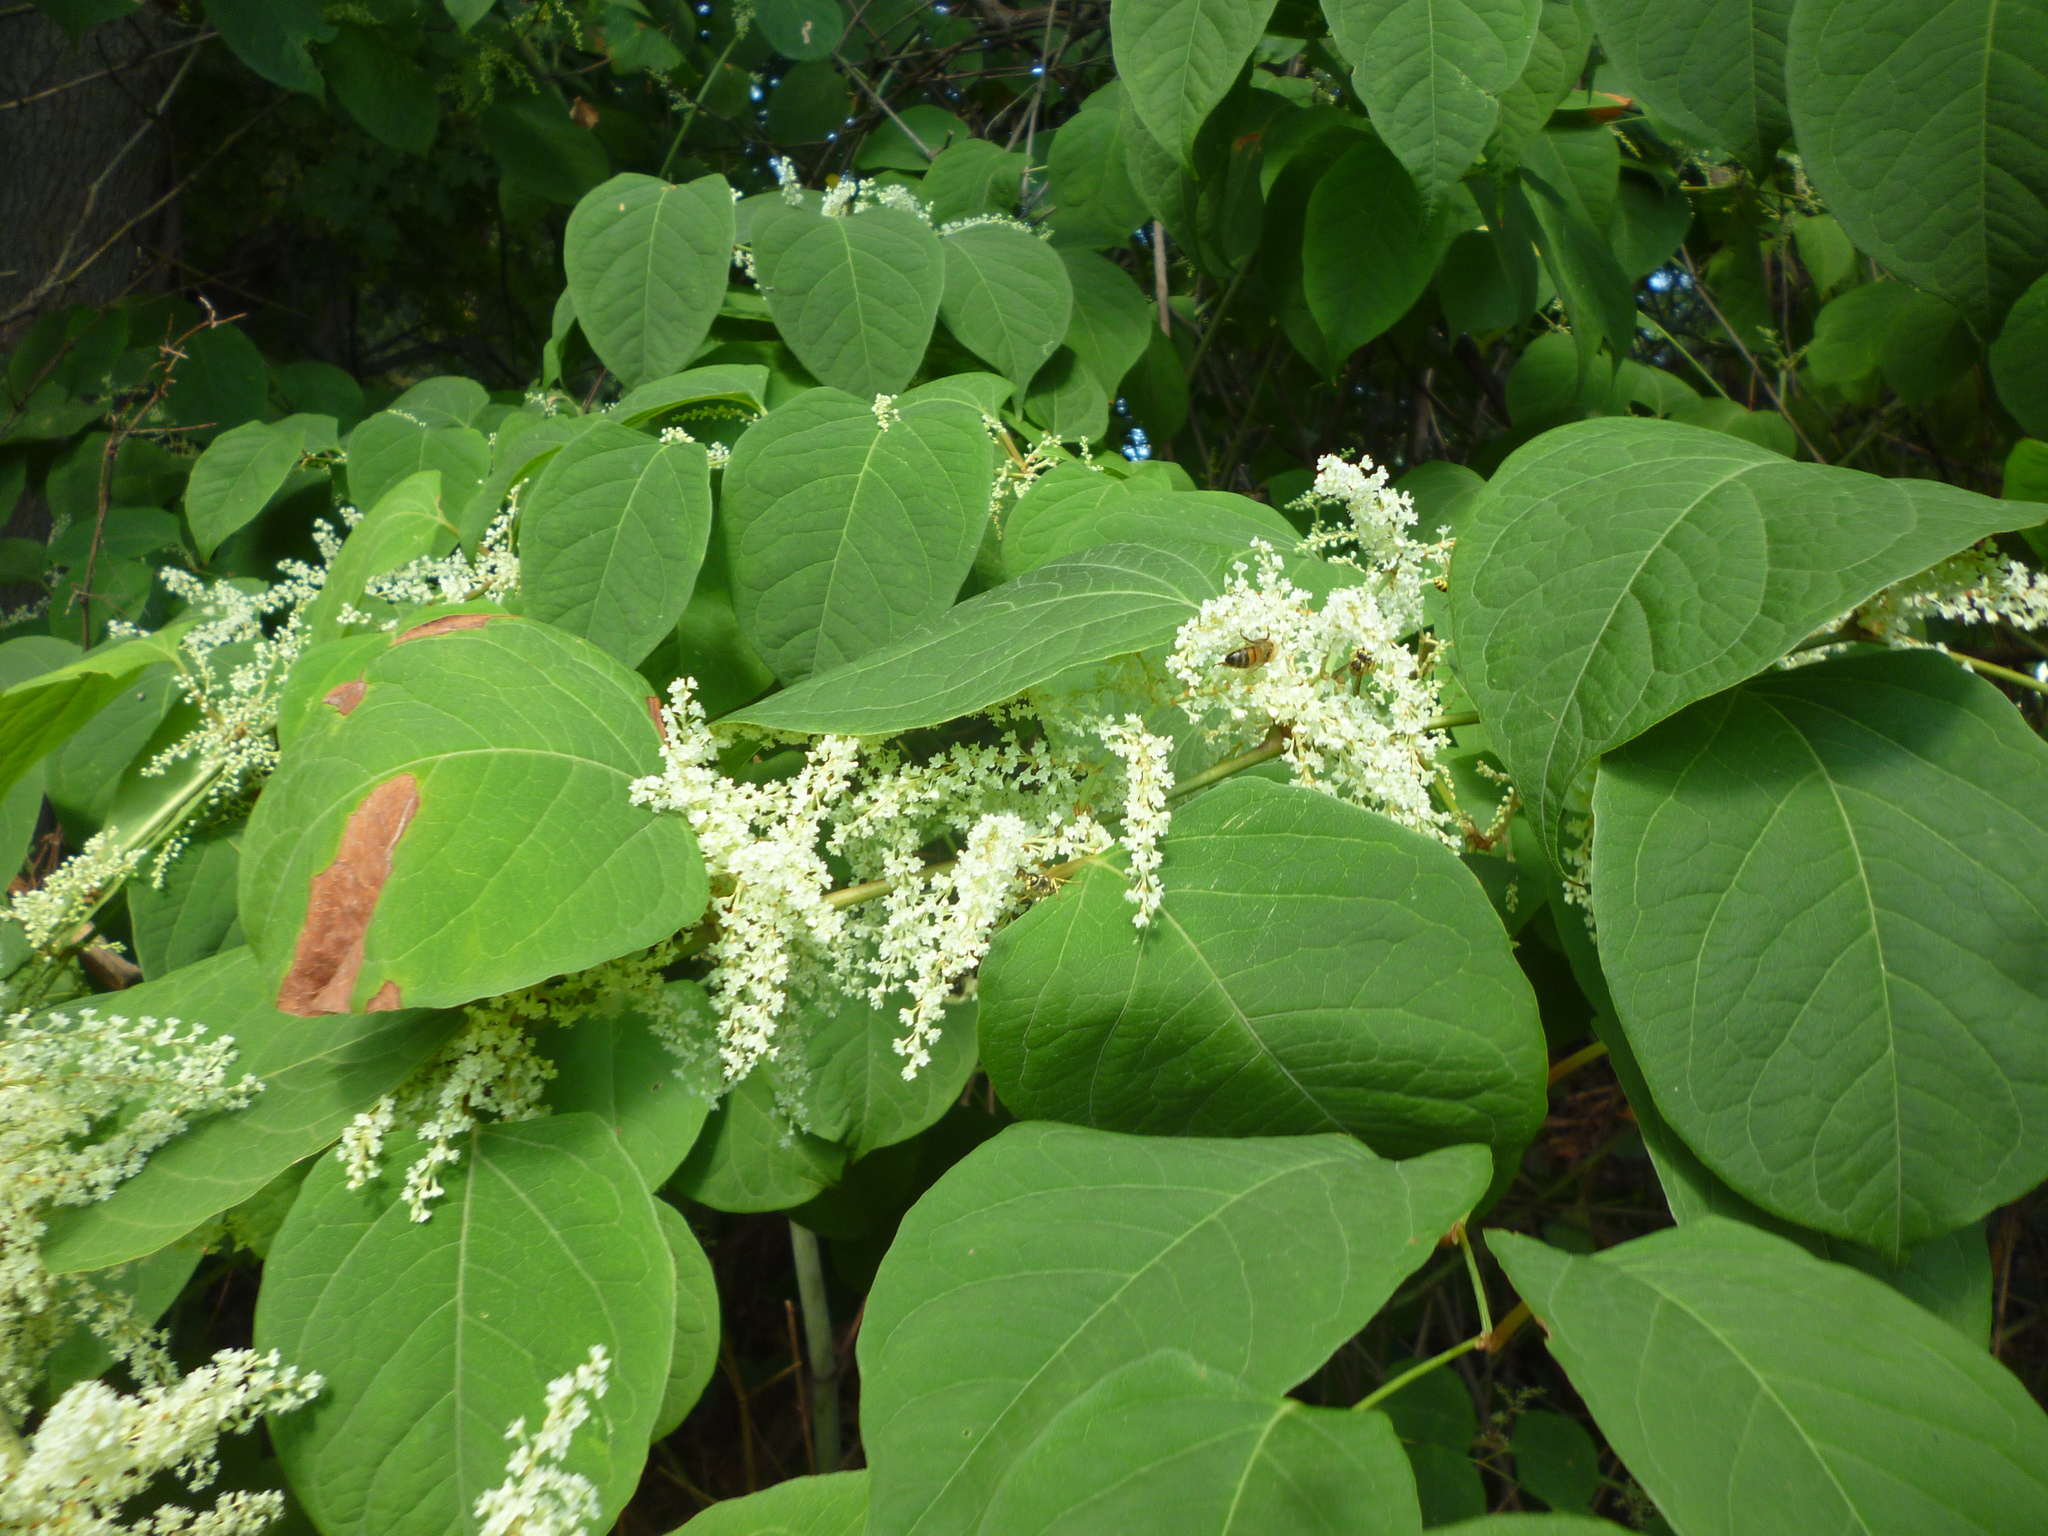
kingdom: Plantae
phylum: Tracheophyta
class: Magnoliopsida
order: Caryophyllales
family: Polygonaceae
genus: Reynoutria
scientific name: Reynoutria japonica
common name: Japanese knotweed
